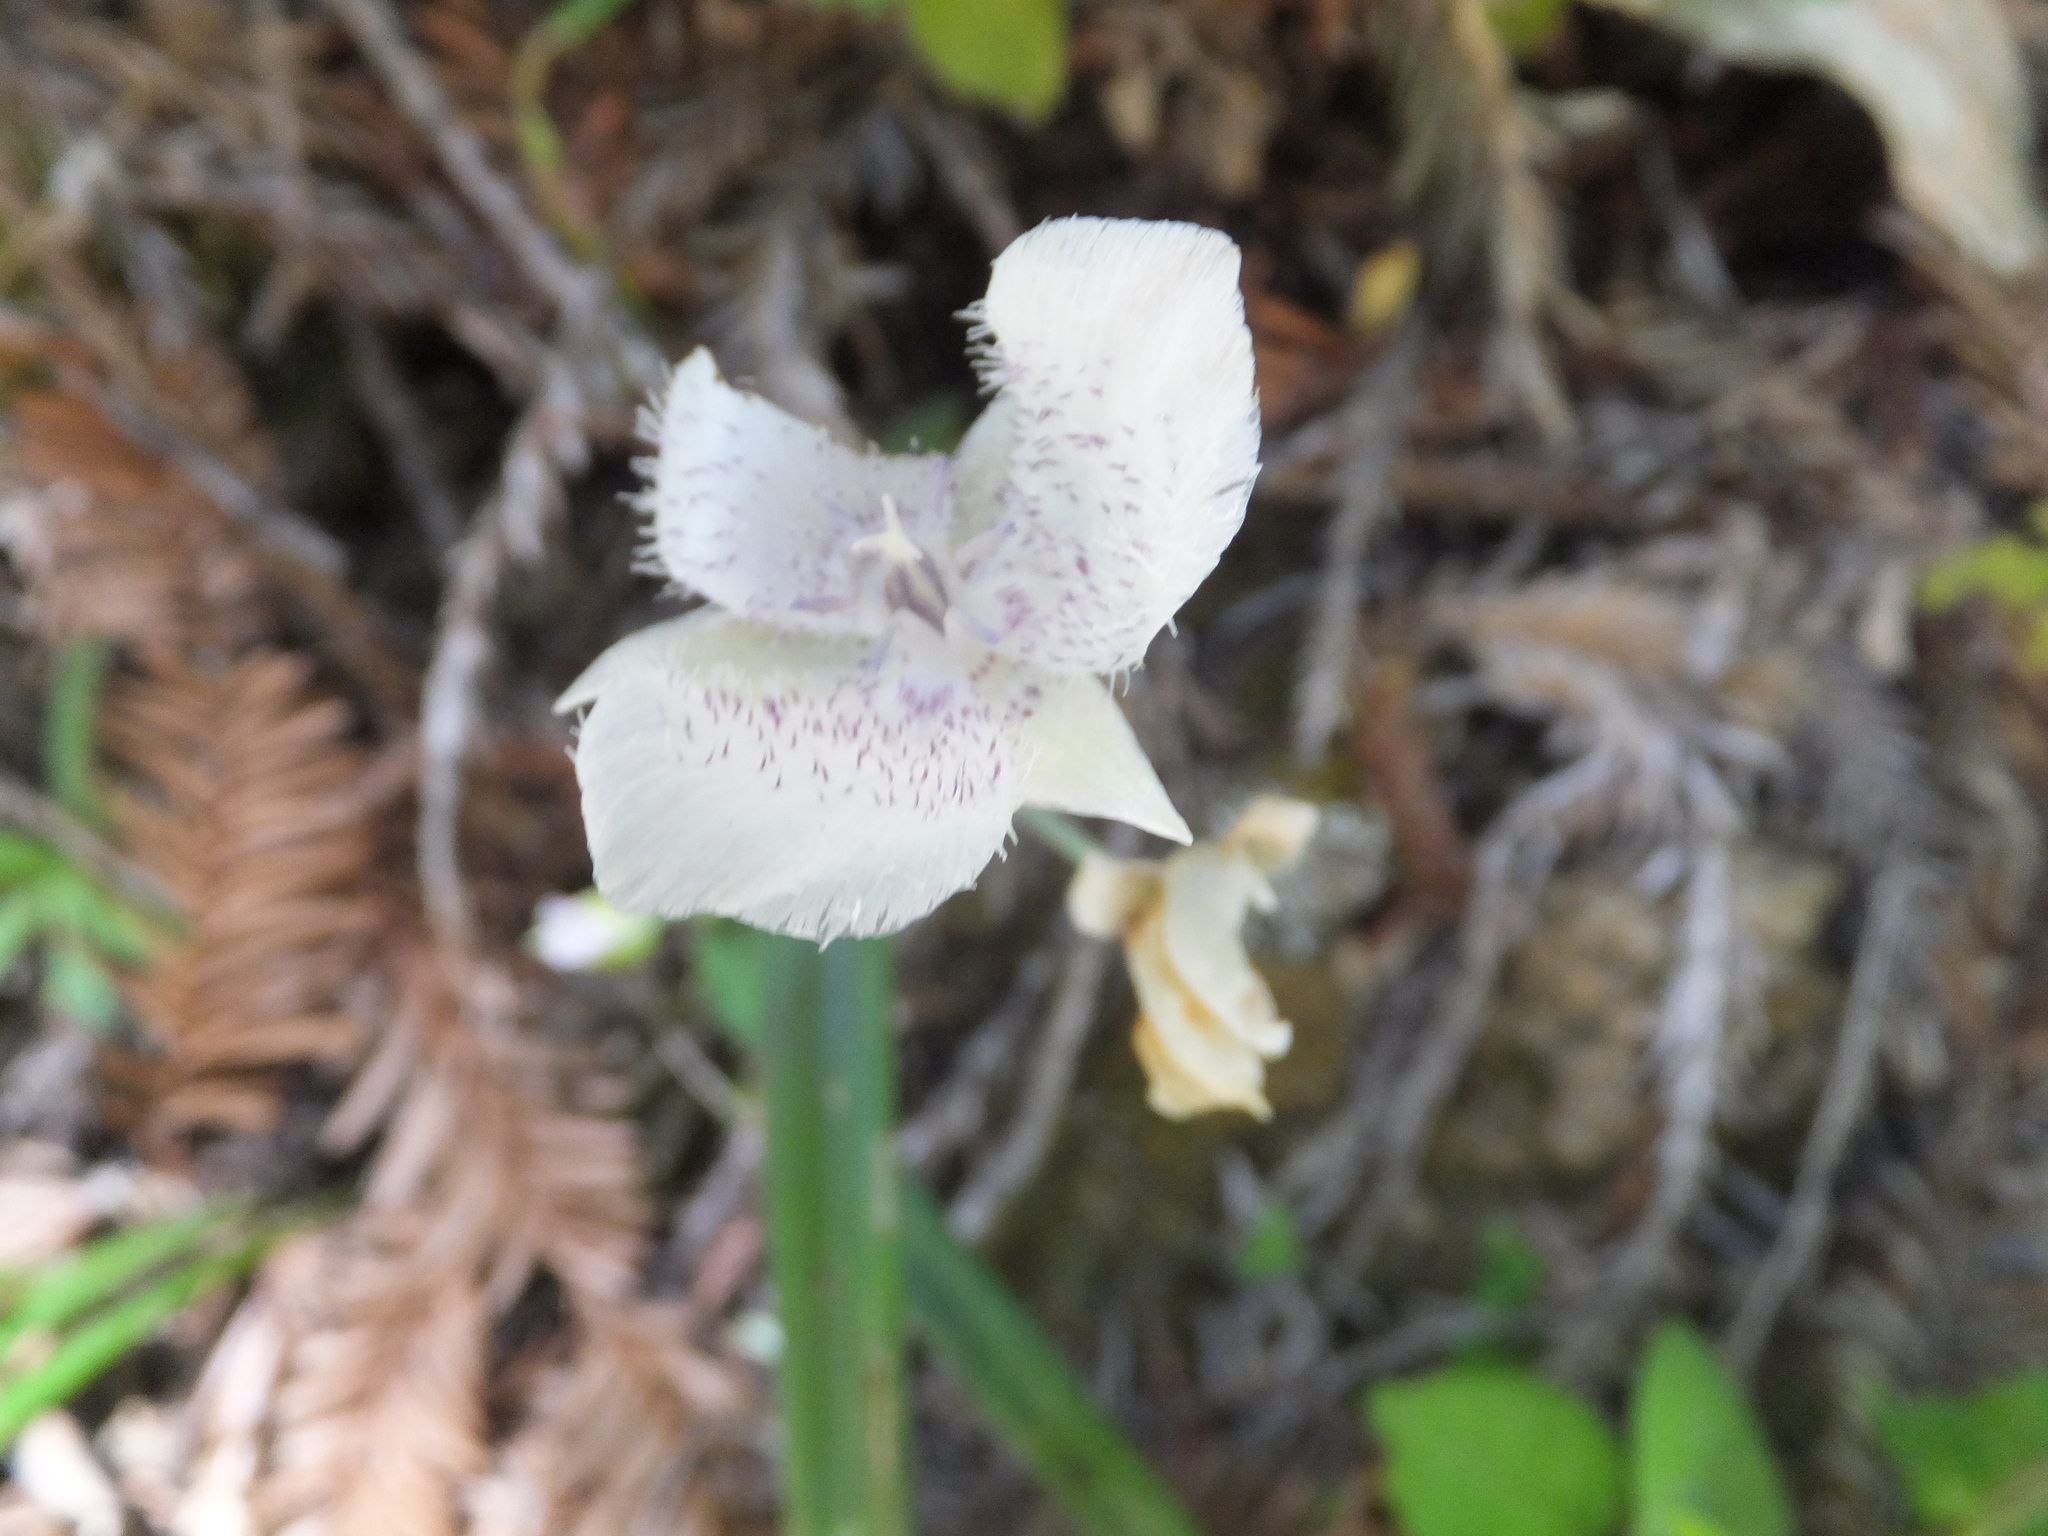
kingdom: Plantae
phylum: Tracheophyta
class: Liliopsida
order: Liliales
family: Liliaceae
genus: Calochortus
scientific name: Calochortus tolmiei
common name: Pussy-ears
